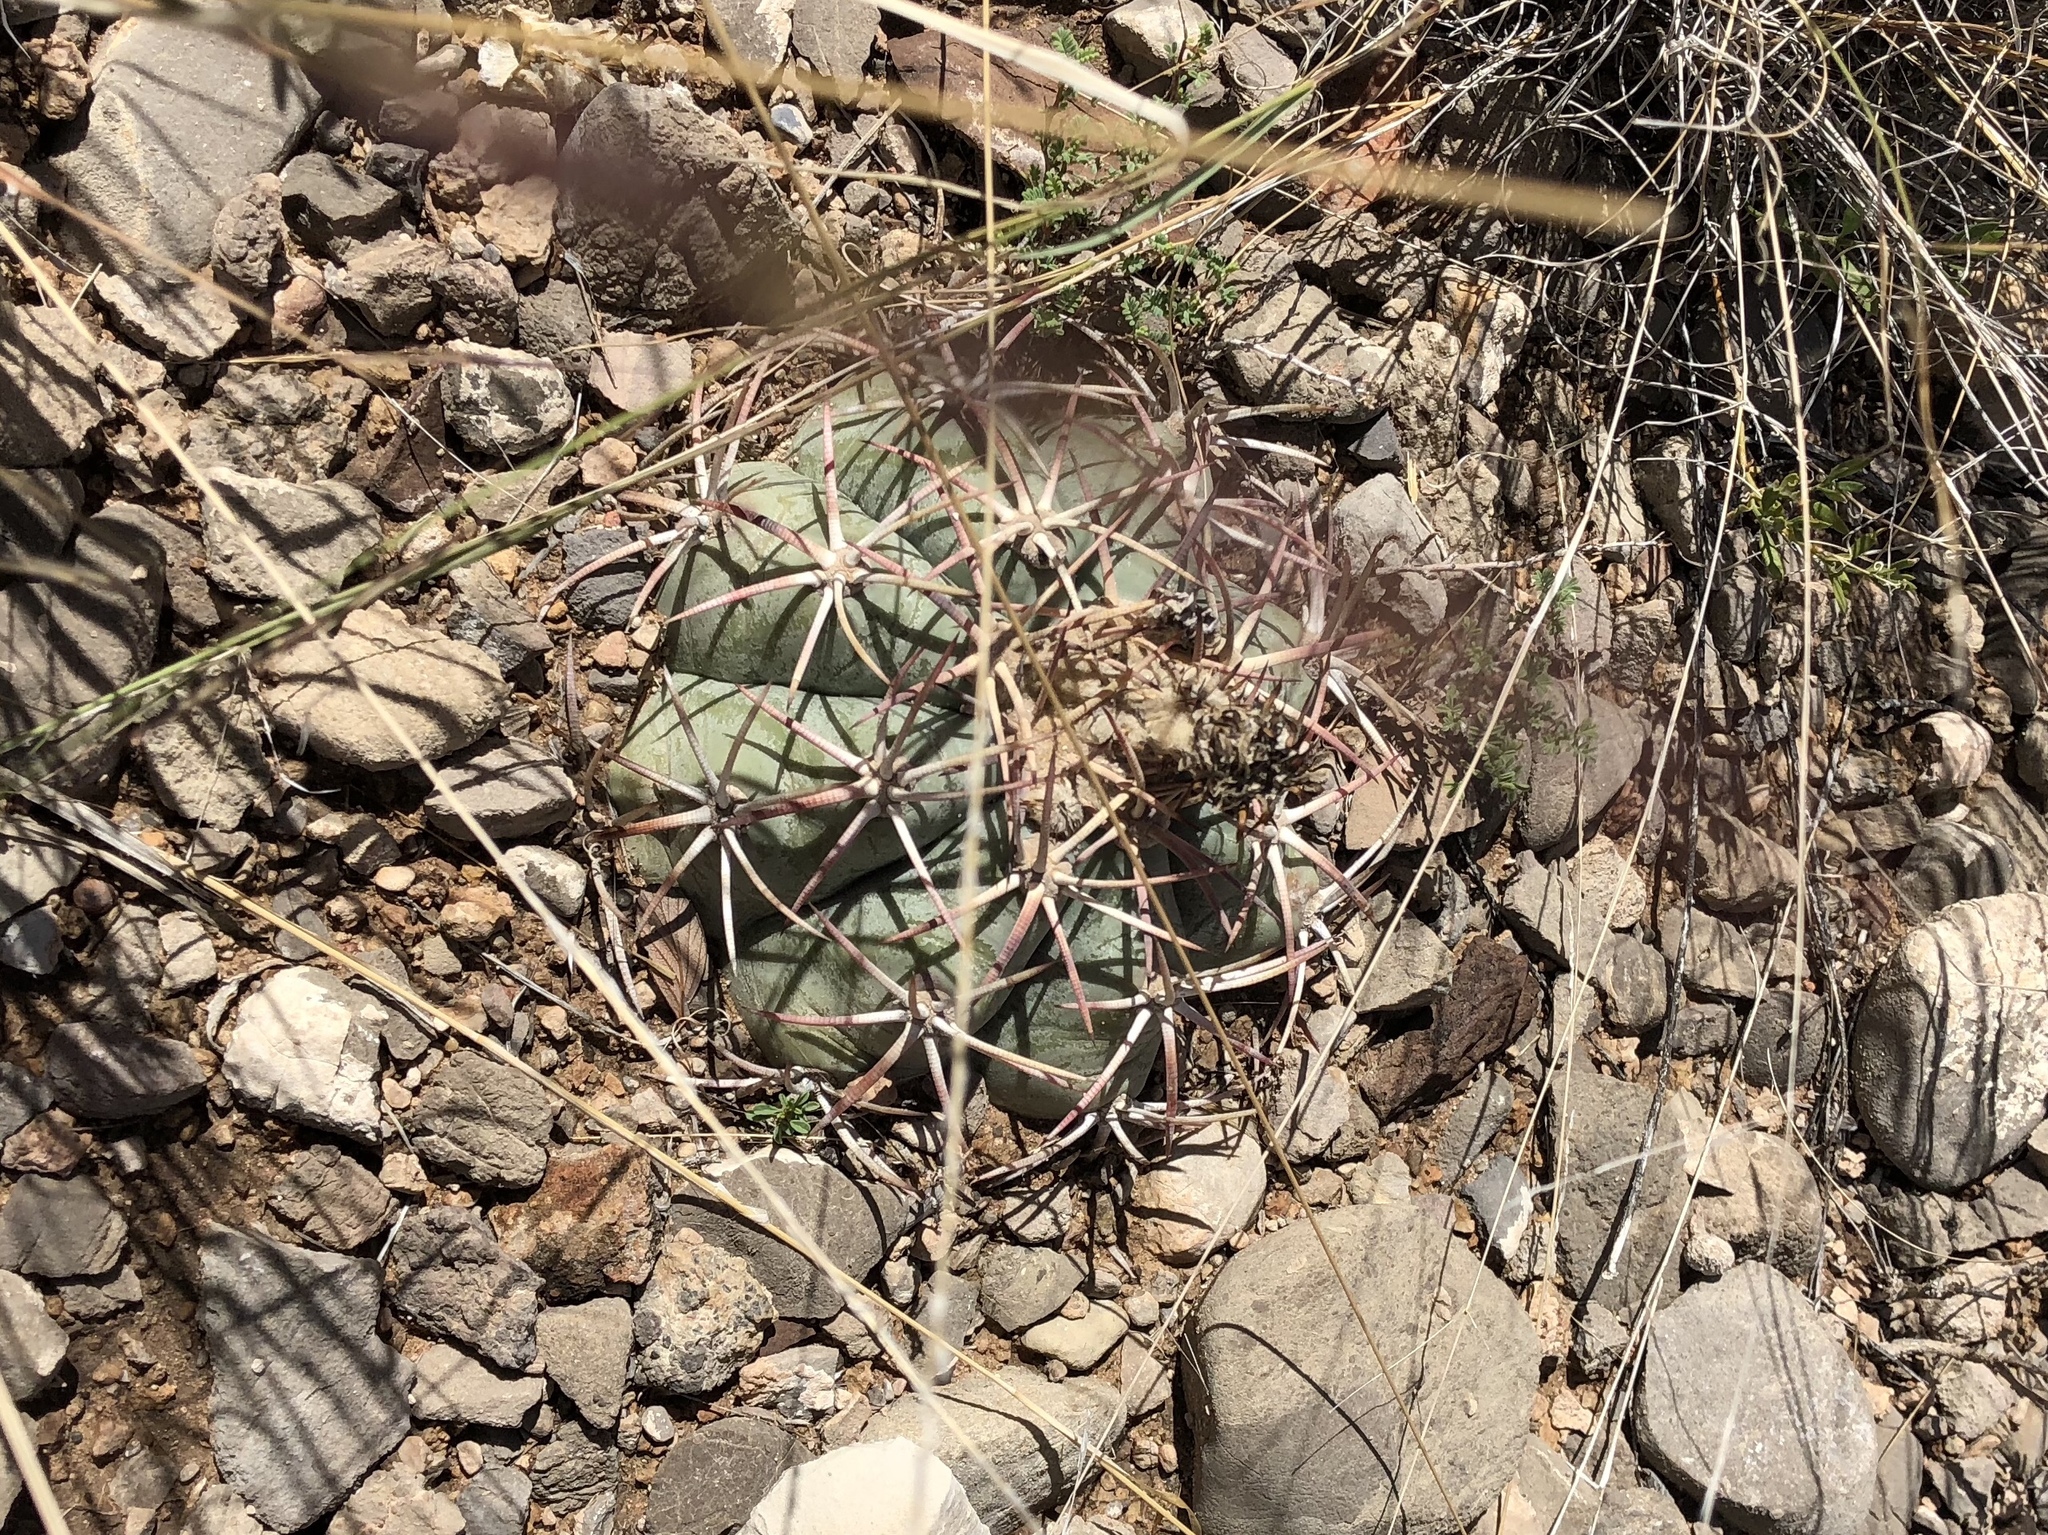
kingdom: Plantae
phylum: Tracheophyta
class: Magnoliopsida
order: Caryophyllales
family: Cactaceae
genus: Echinocactus
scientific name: Echinocactus horizonthalonius
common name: Devilshead
